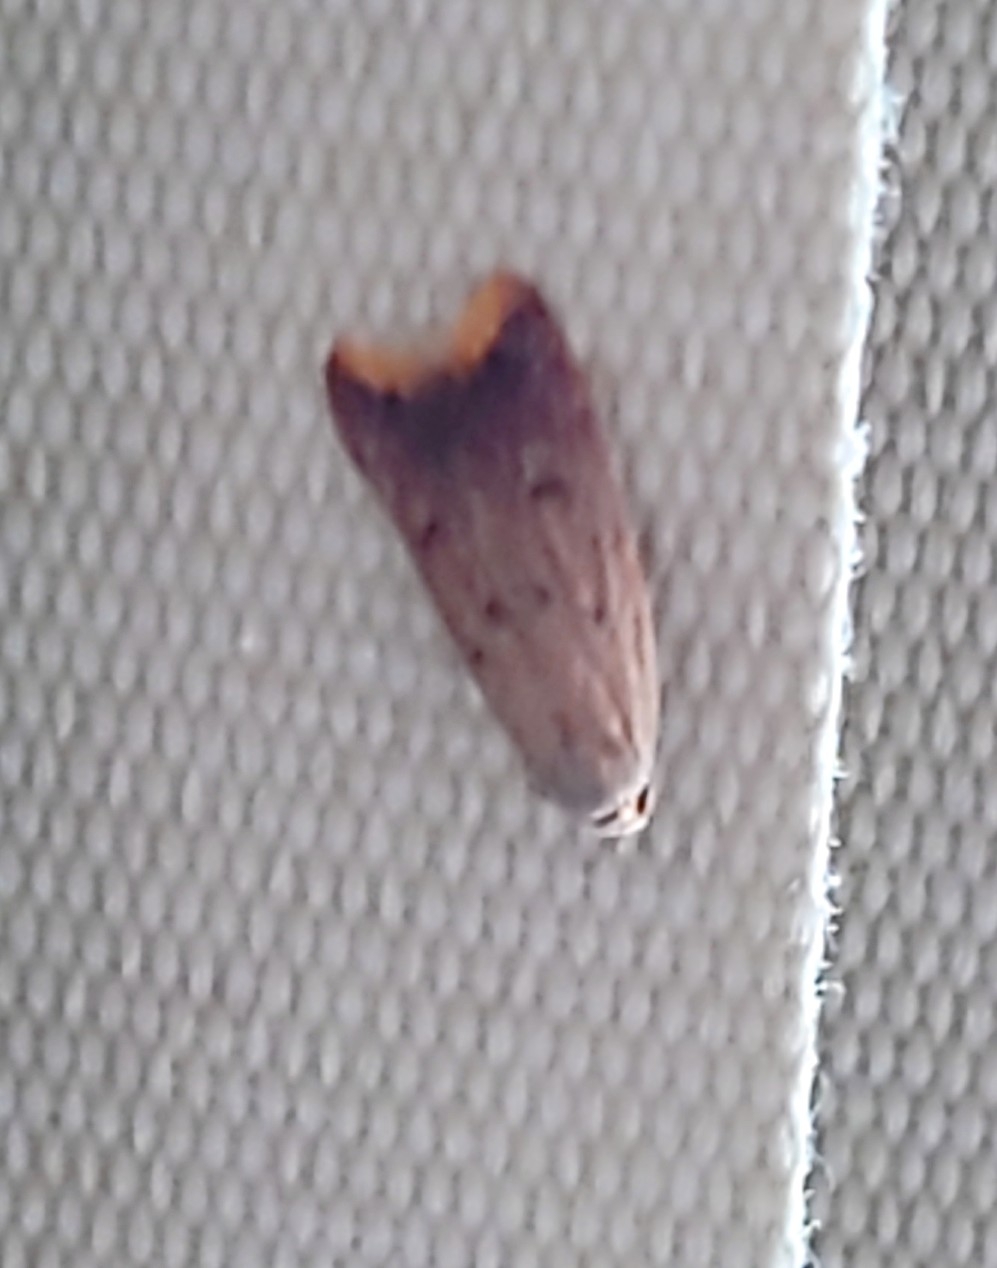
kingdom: Animalia
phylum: Arthropoda
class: Insecta
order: Lepidoptera
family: Oecophoridae
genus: Tachystola
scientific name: Tachystola acroxantha
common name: Ruddy streak
